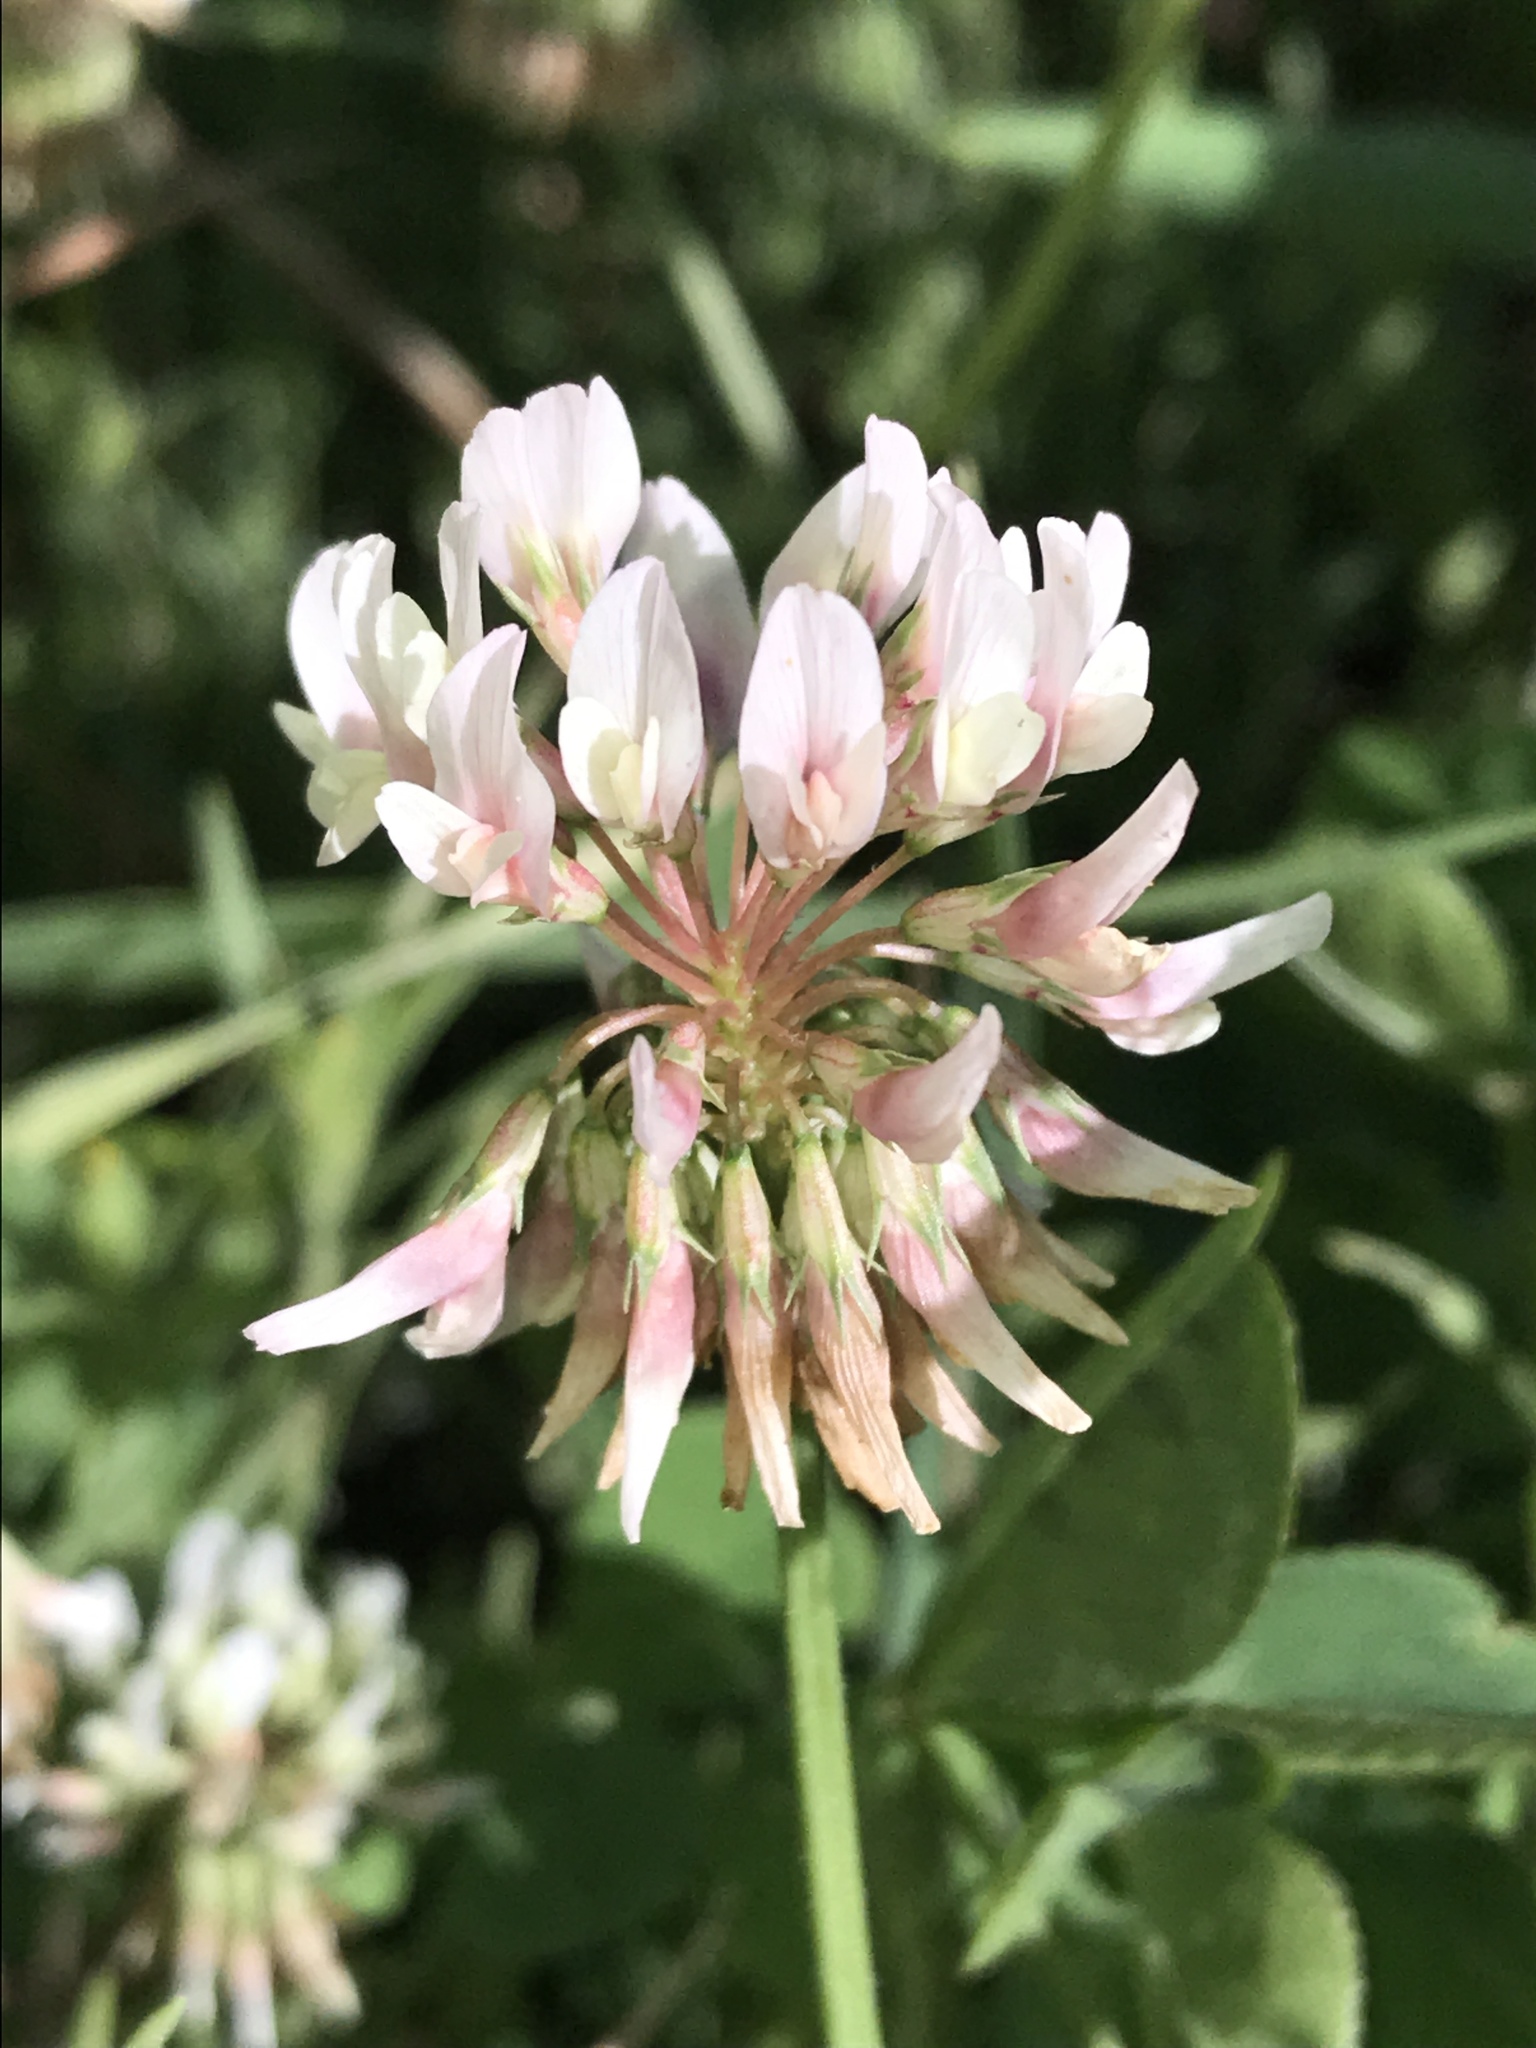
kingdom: Plantae
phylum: Tracheophyta
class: Magnoliopsida
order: Fabales
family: Fabaceae
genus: Trifolium
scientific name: Trifolium repens
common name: White clover
